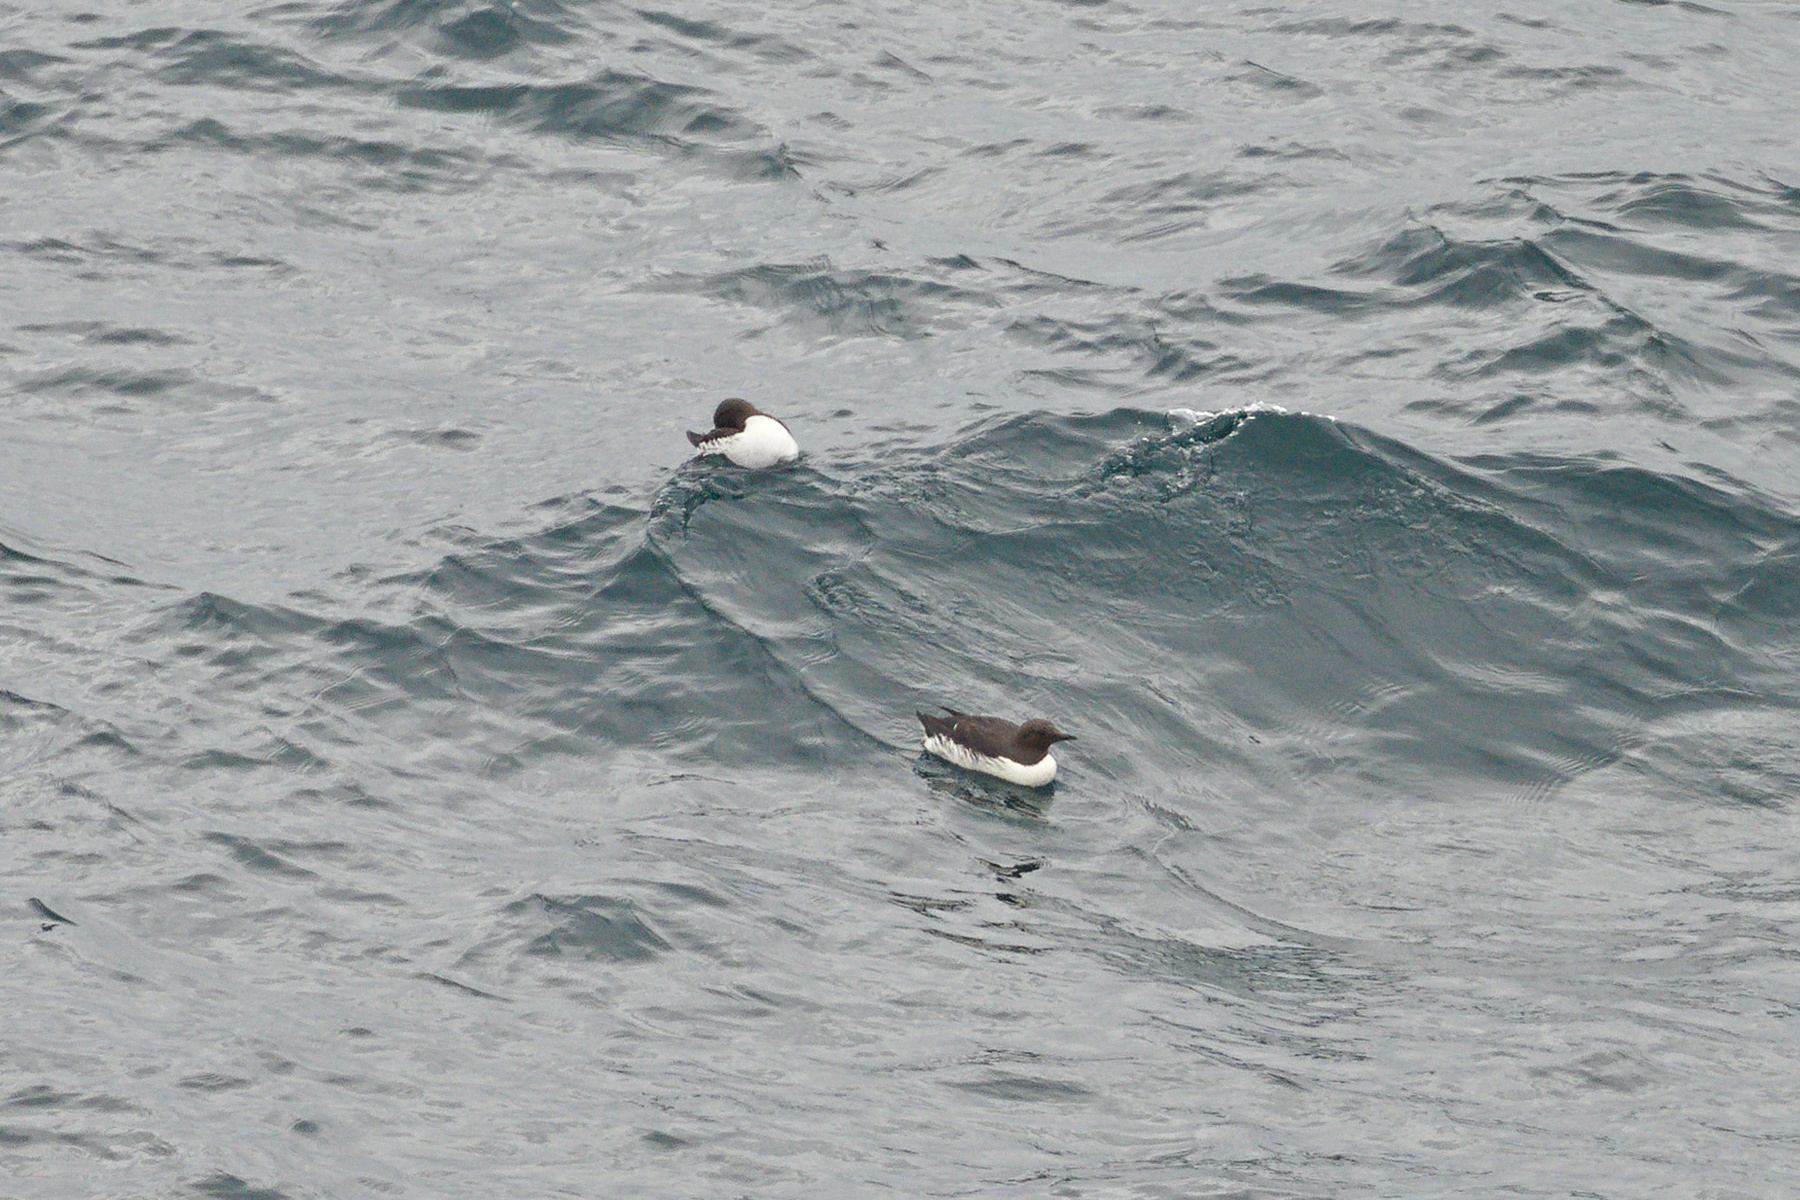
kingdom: Animalia
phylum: Chordata
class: Aves
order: Charadriiformes
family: Alcidae
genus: Uria
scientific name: Uria aalge
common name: Common murre
